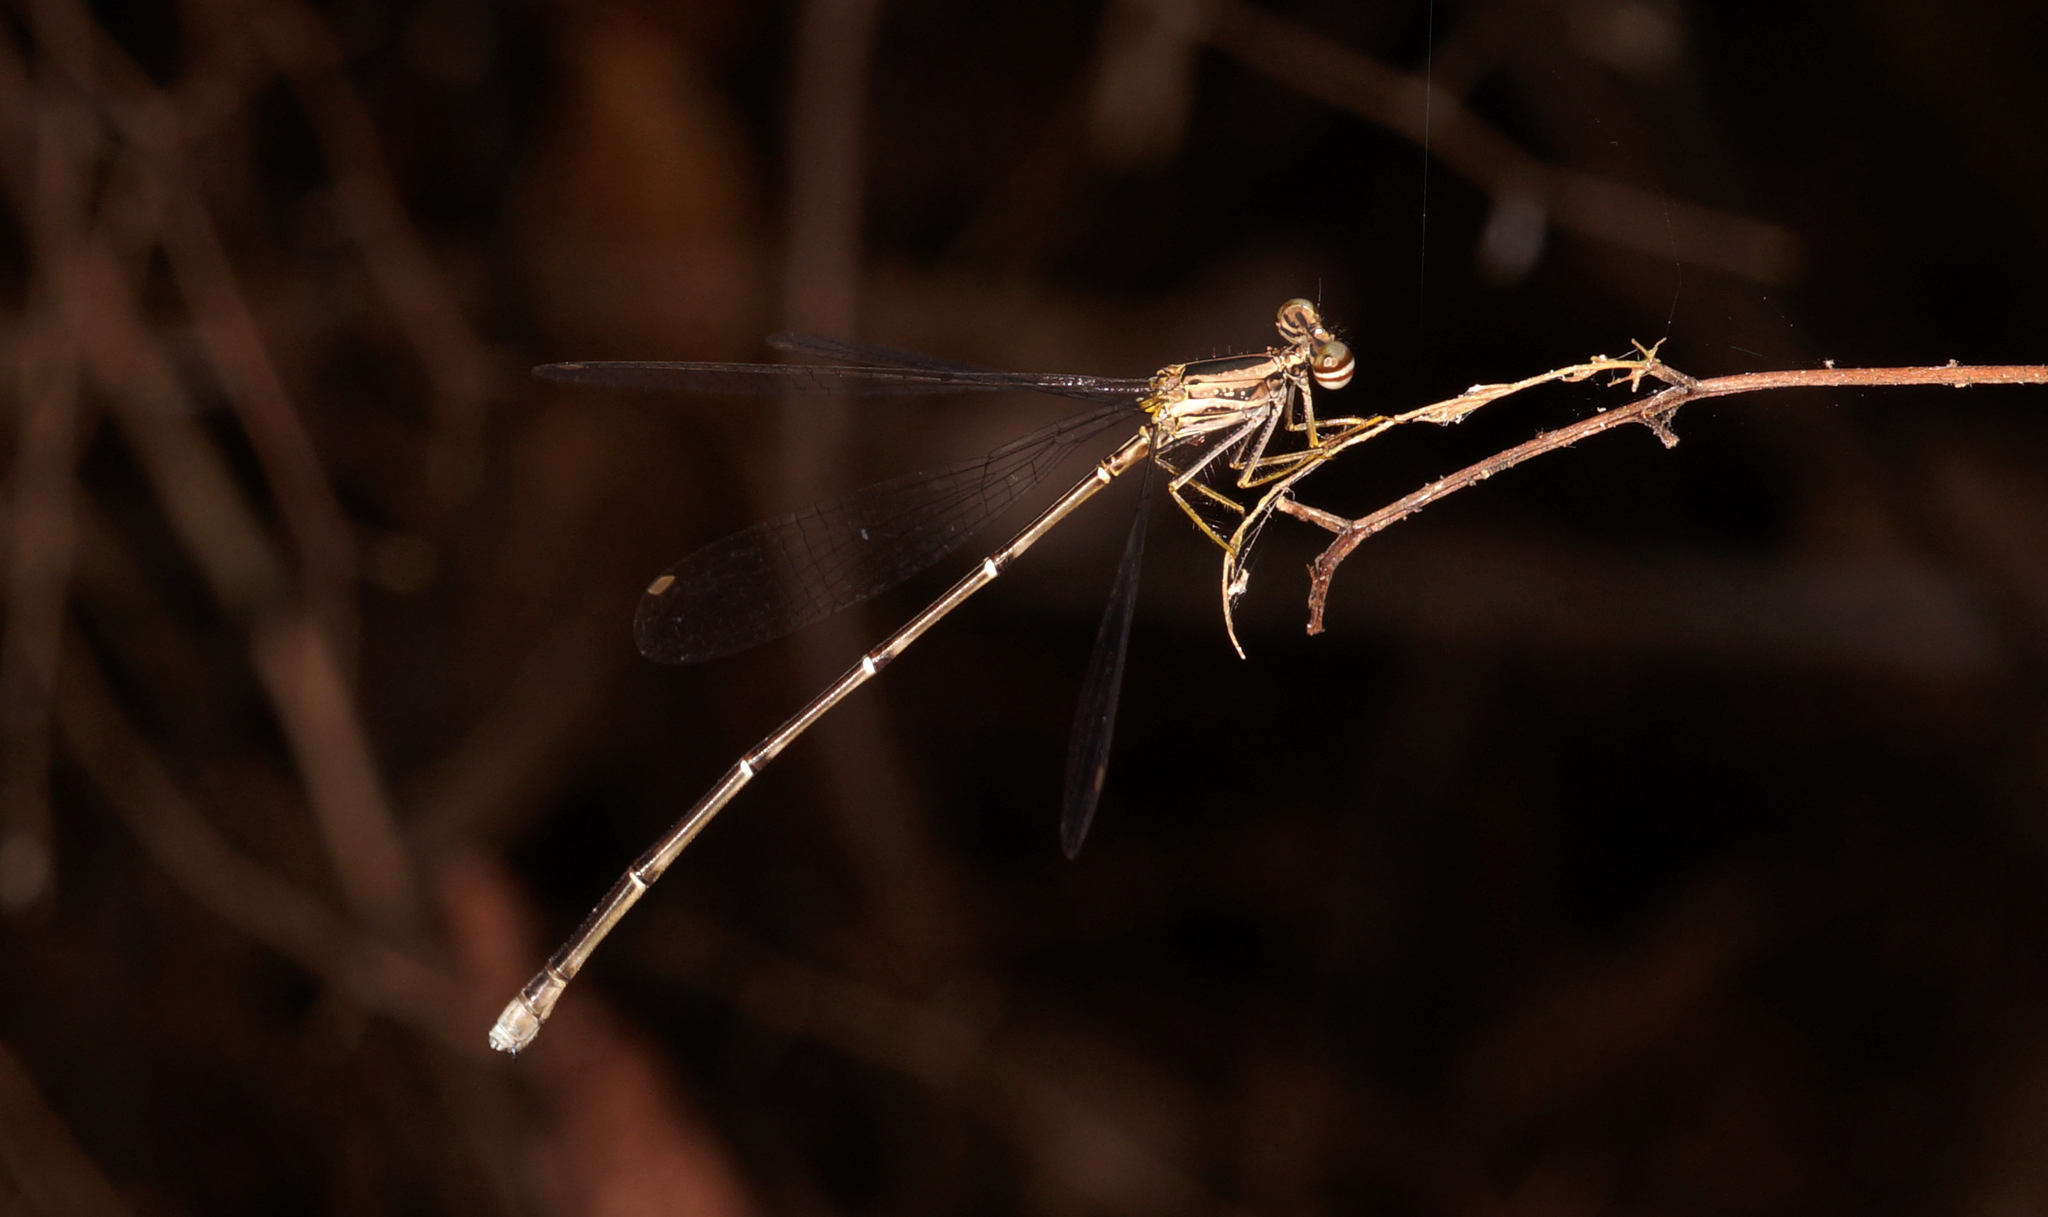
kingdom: Animalia
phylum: Arthropoda
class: Insecta
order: Odonata
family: Platycnemididae
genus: Copera
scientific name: Copera marginipes
